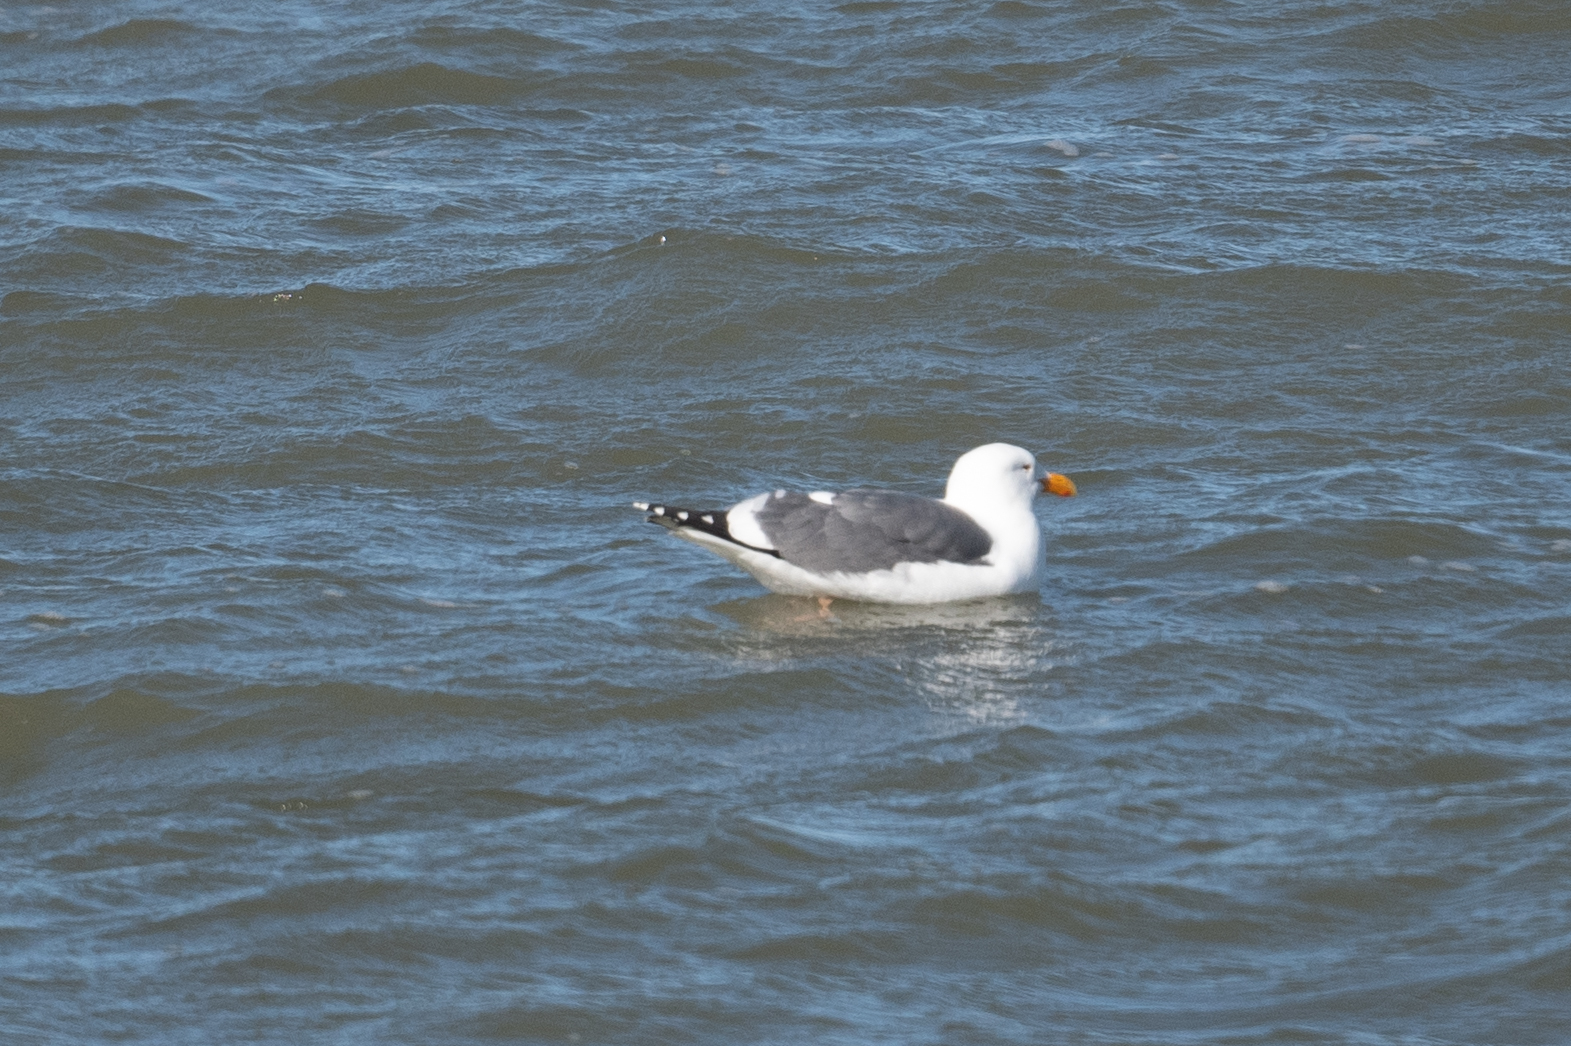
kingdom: Animalia
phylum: Chordata
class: Aves
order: Charadriiformes
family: Laridae
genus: Larus
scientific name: Larus occidentalis
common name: Western gull
